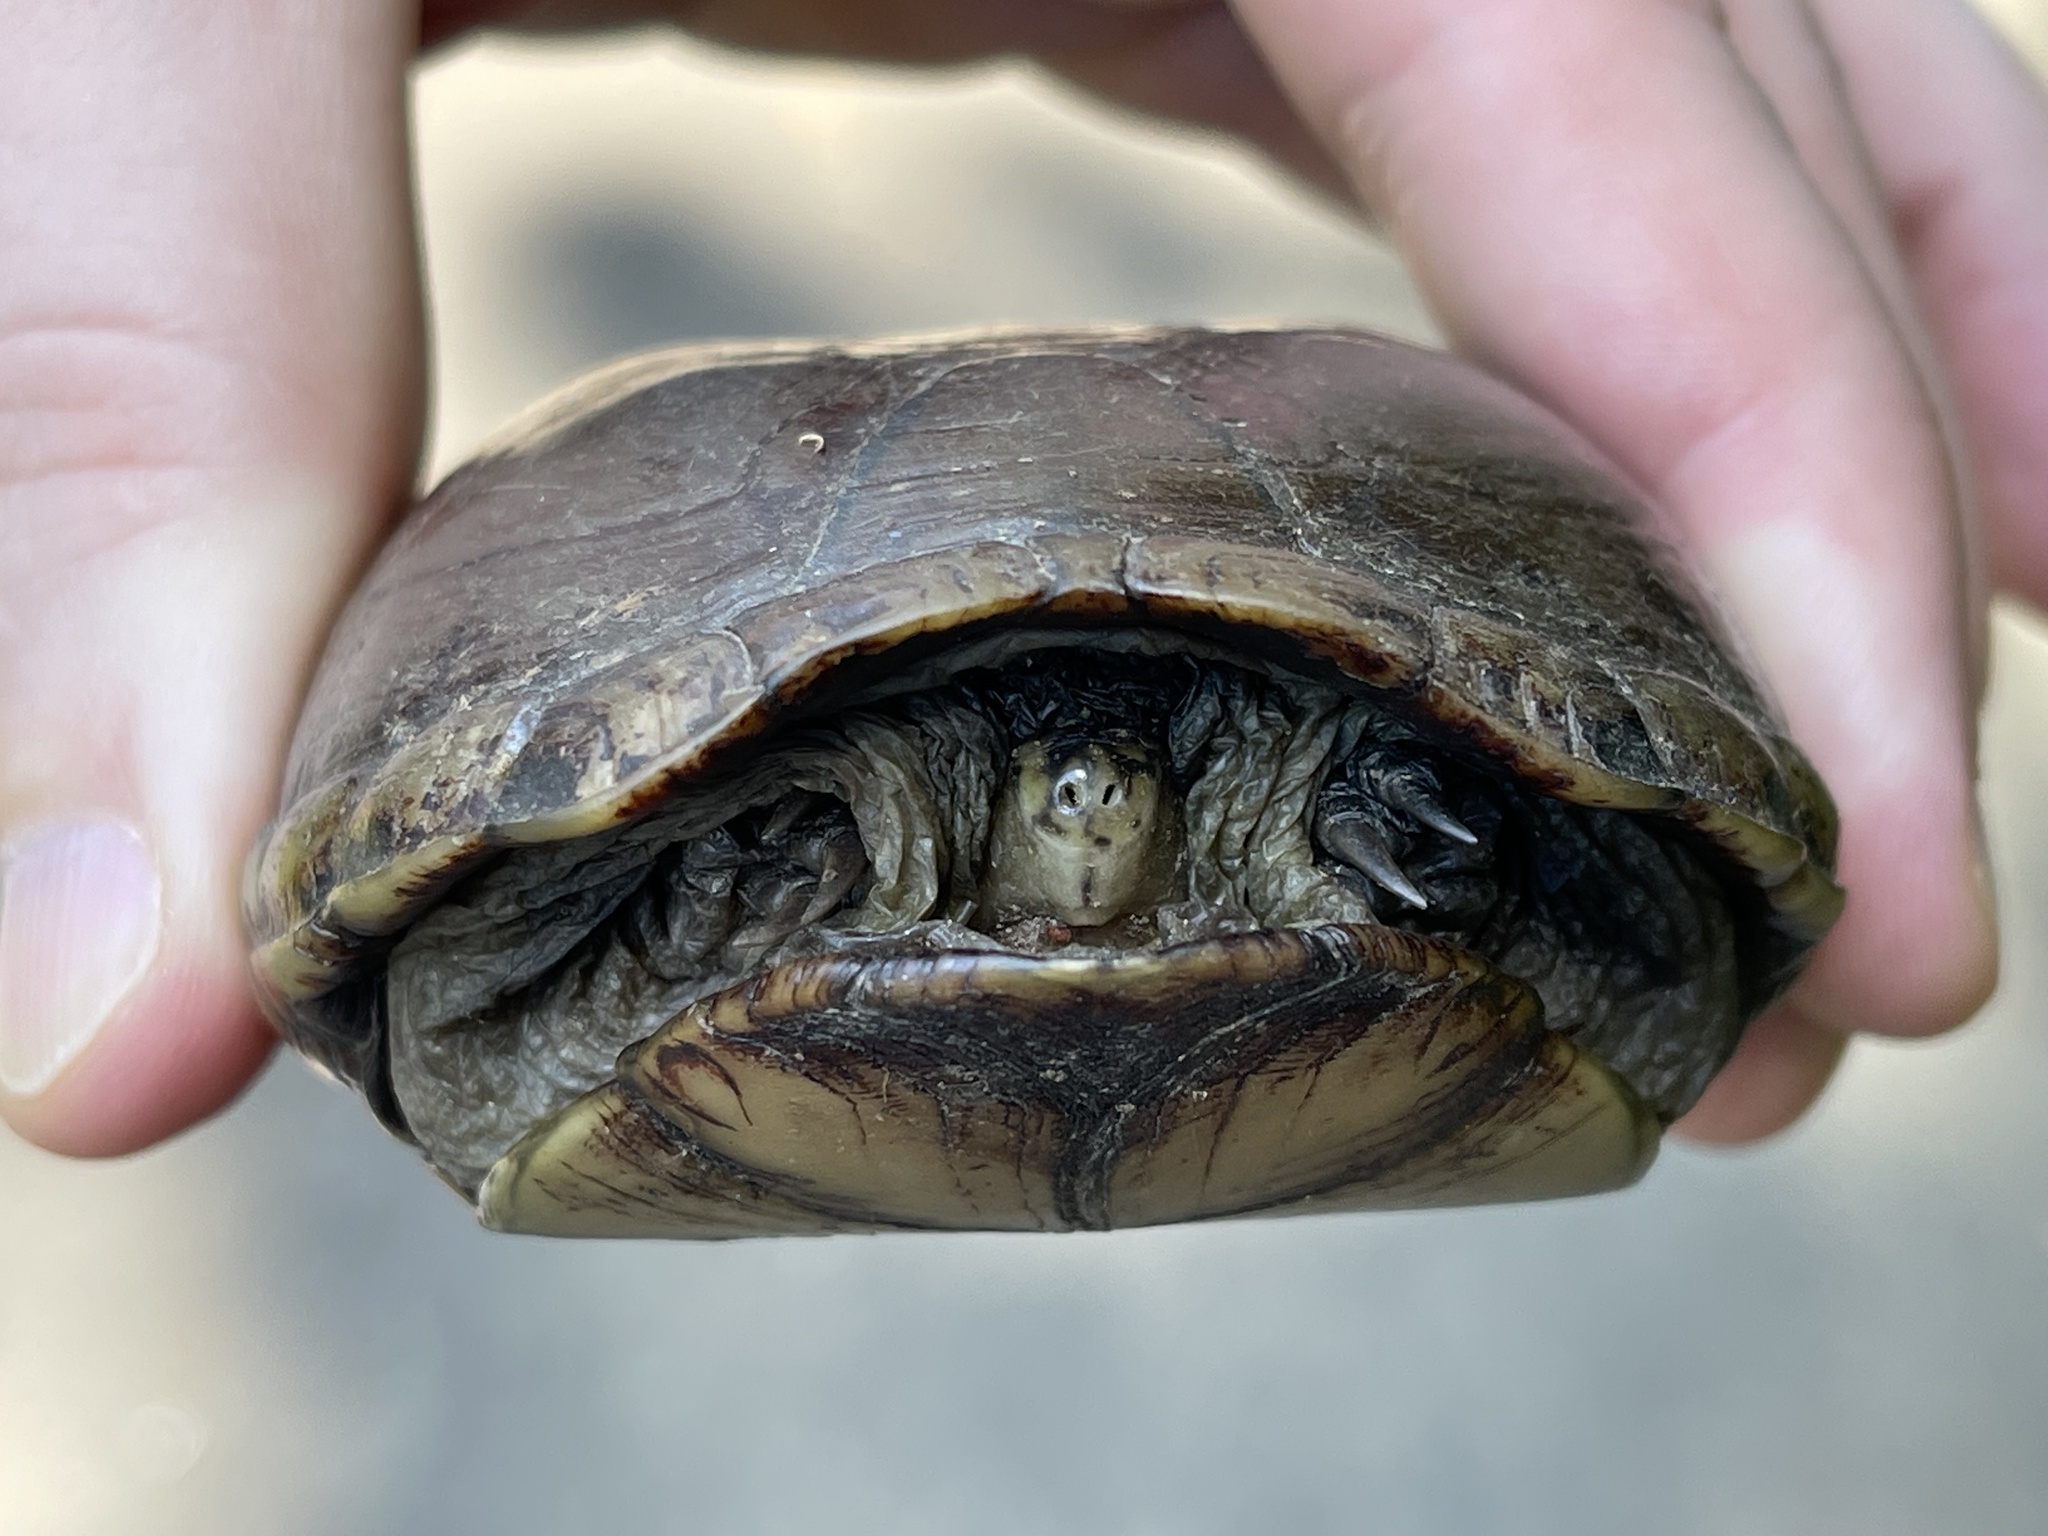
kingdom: Animalia
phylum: Chordata
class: Testudines
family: Kinosternidae
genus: Kinosternon
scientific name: Kinosternon subrubrum
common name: Eastern mud turtle
